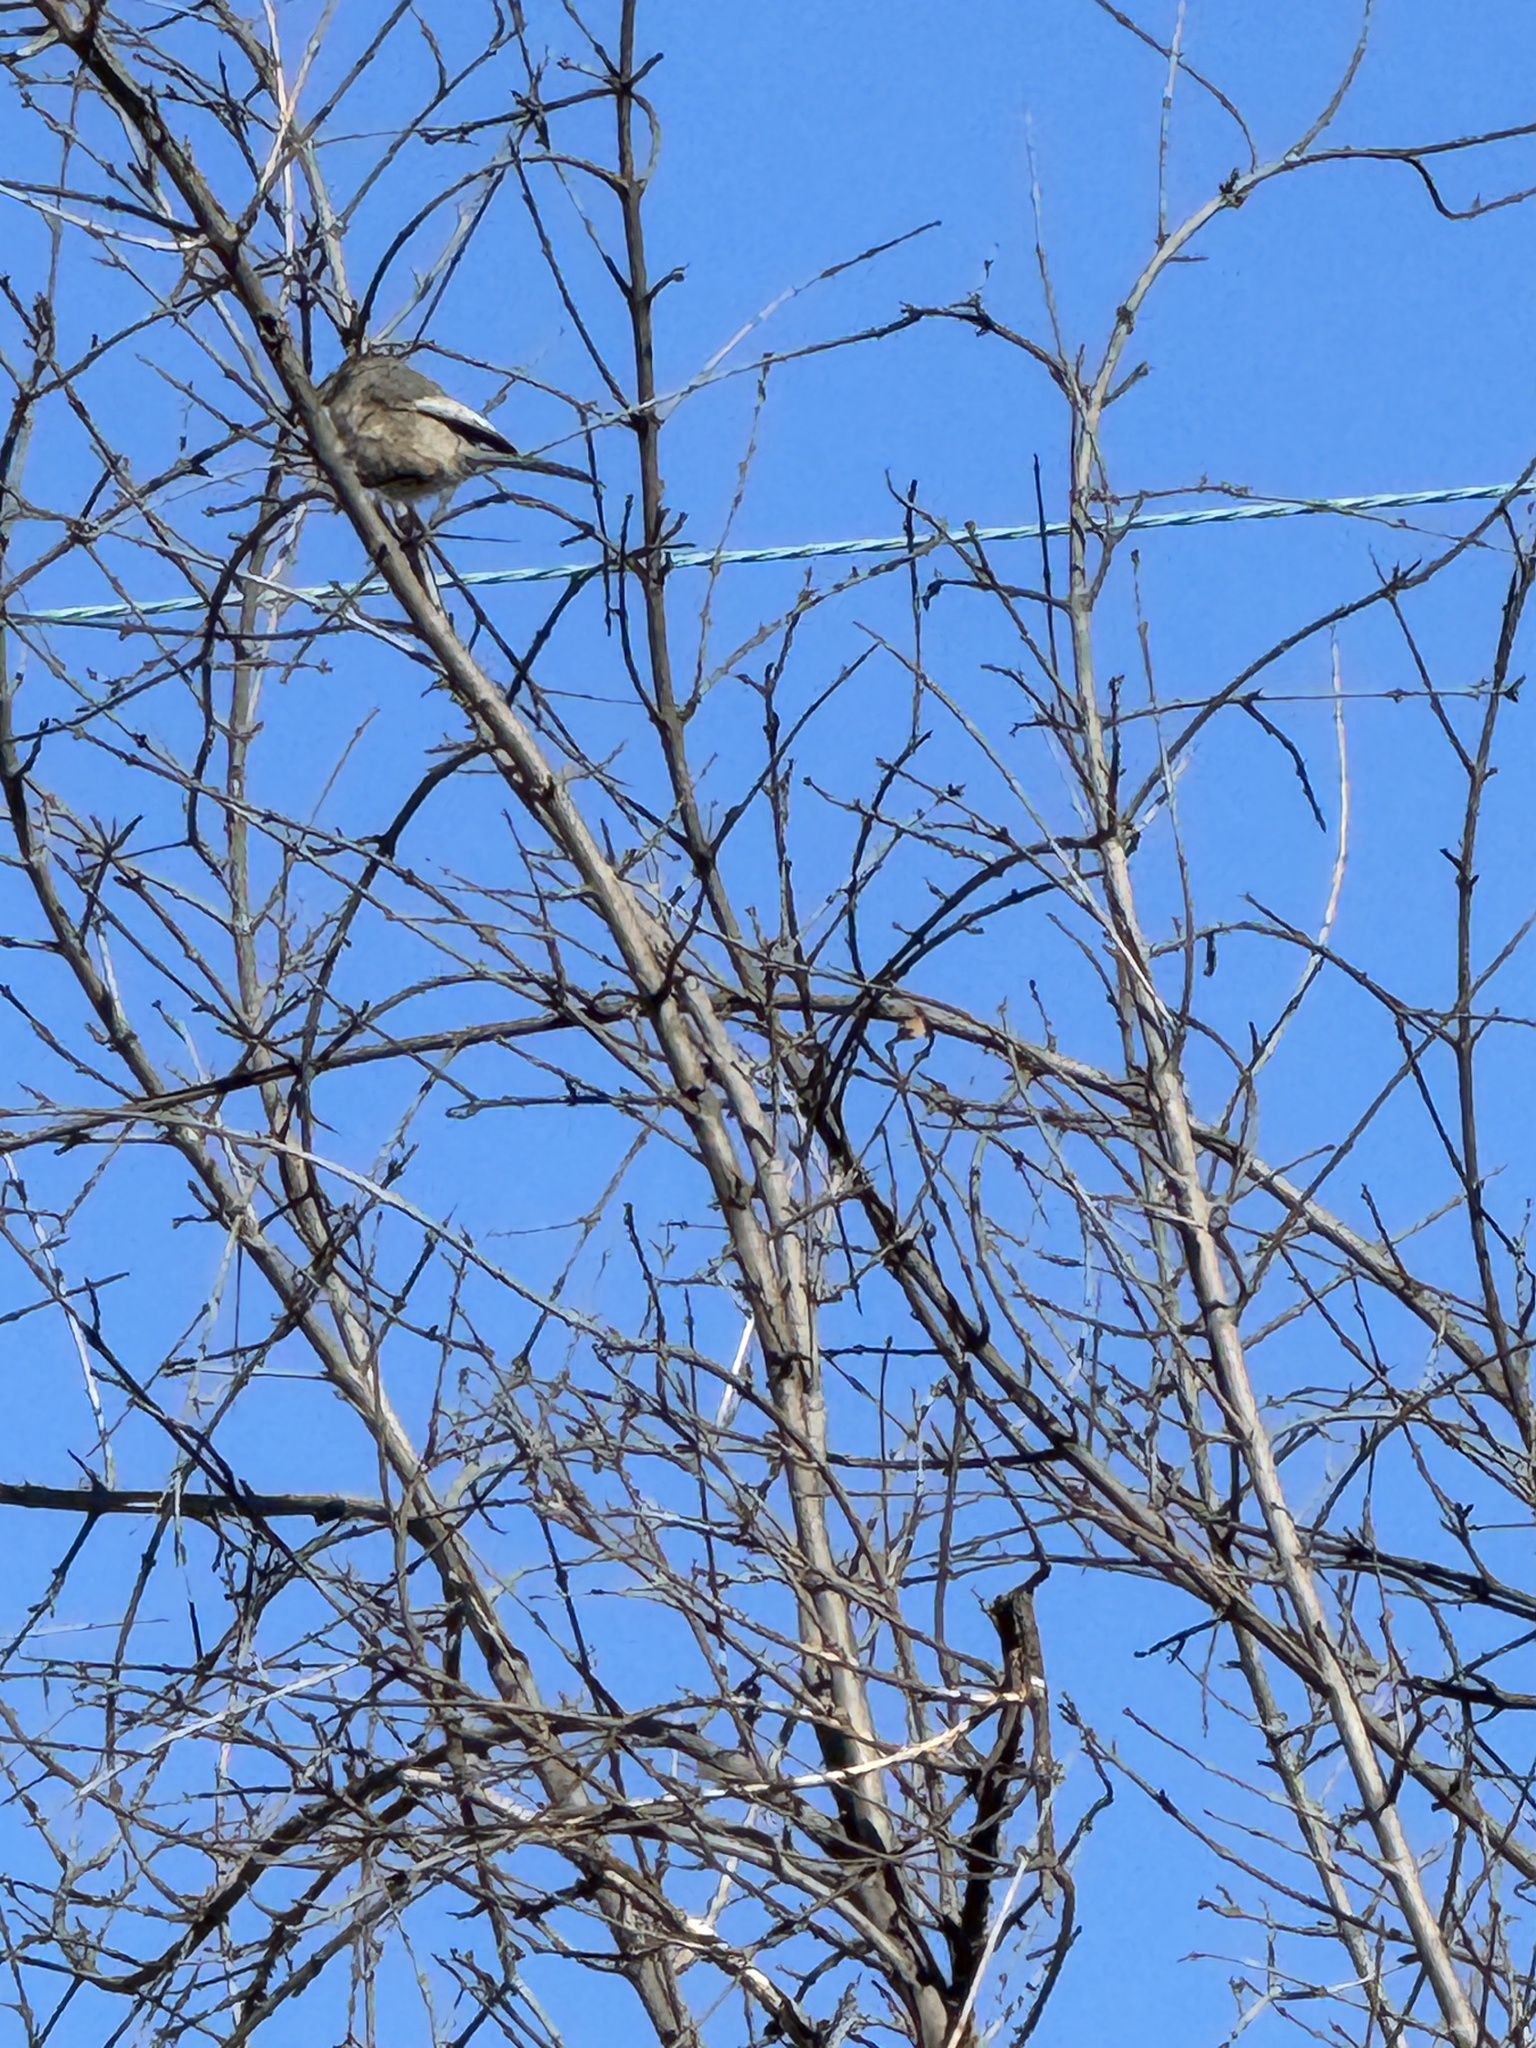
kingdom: Animalia
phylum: Chordata
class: Aves
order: Passeriformes
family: Aegithalidae
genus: Psaltriparus
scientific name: Psaltriparus minimus
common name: American bushtit
